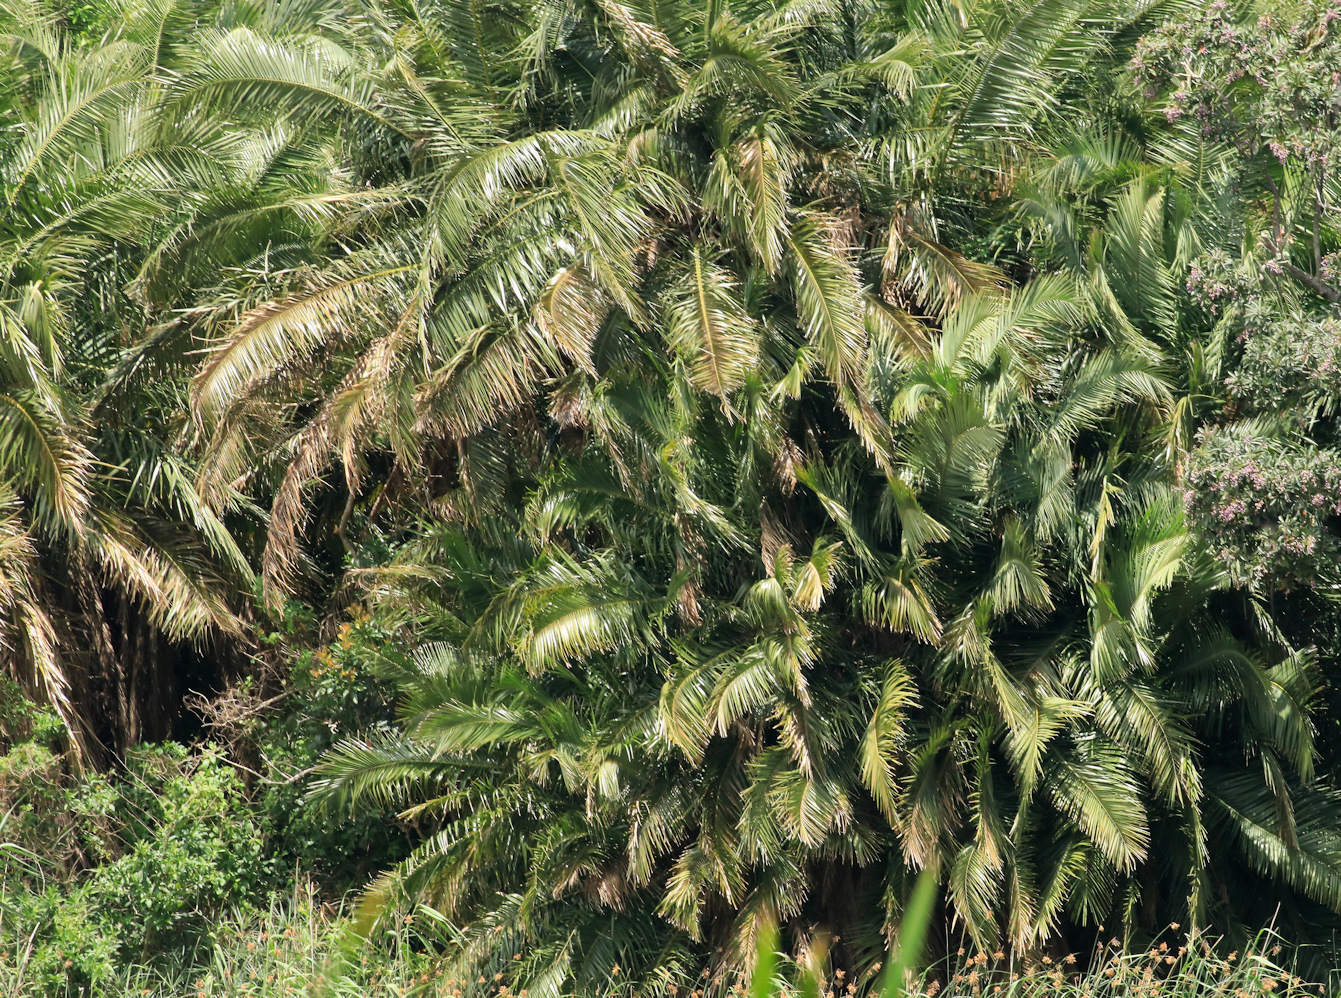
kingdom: Plantae
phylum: Tracheophyta
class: Liliopsida
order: Arecales
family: Arecaceae
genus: Phoenix
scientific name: Phoenix reclinata
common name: Senegal date palm
